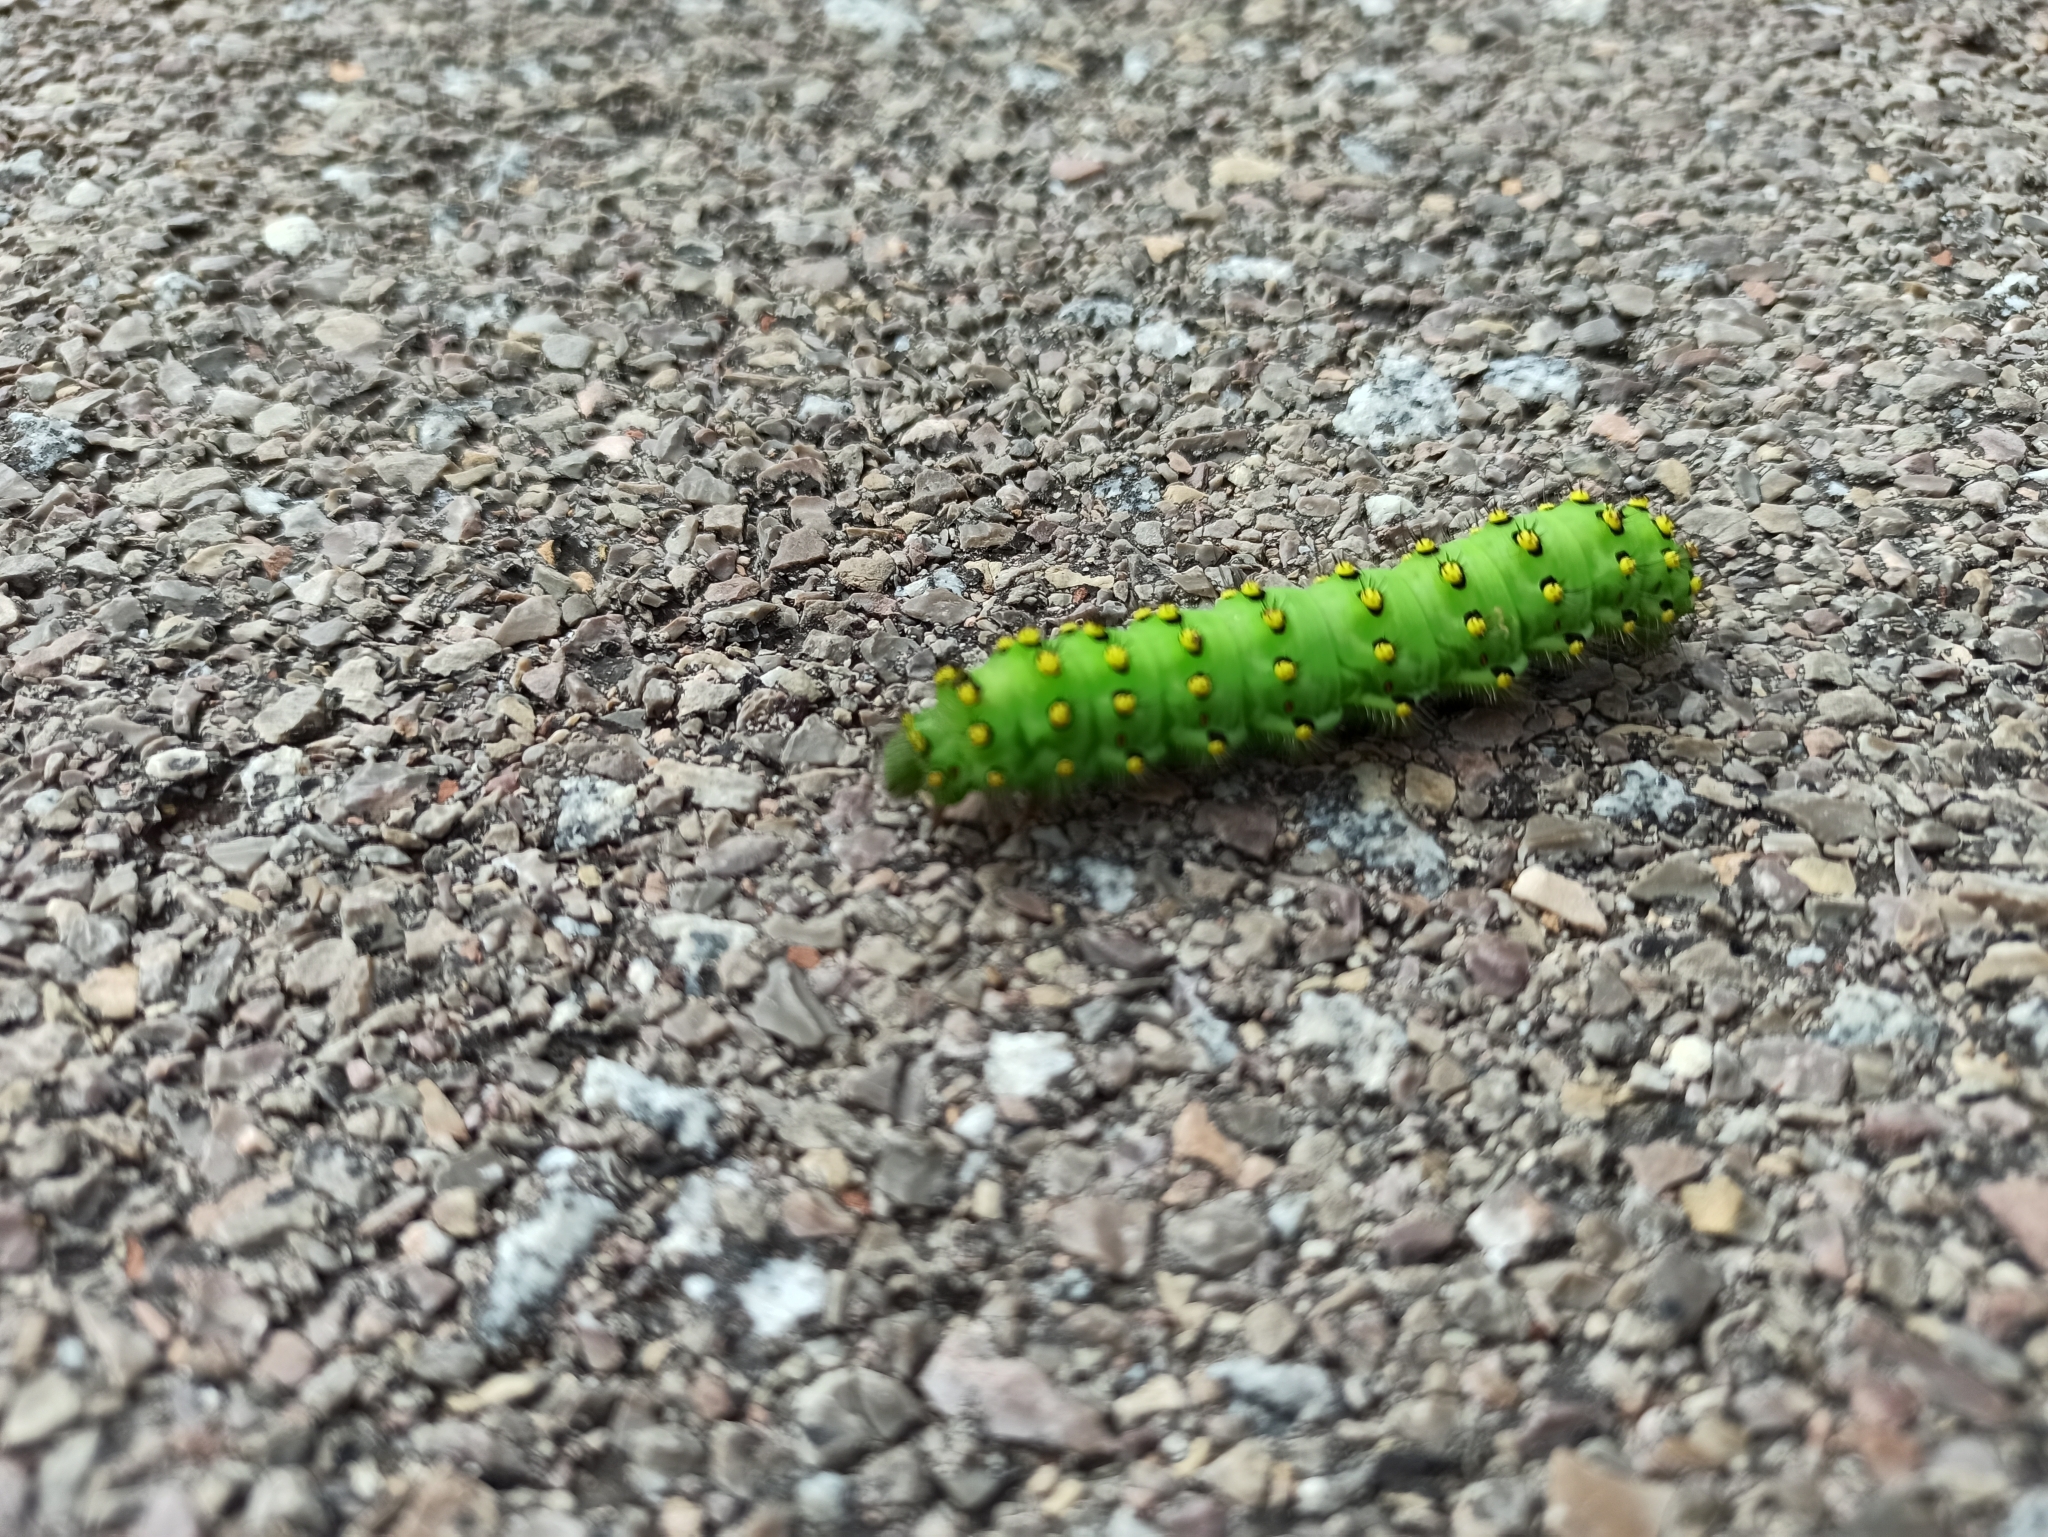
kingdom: Animalia
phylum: Arthropoda
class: Insecta
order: Lepidoptera
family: Saturniidae
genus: Saturnia
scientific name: Saturnia pavonia
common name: Emperor moth
